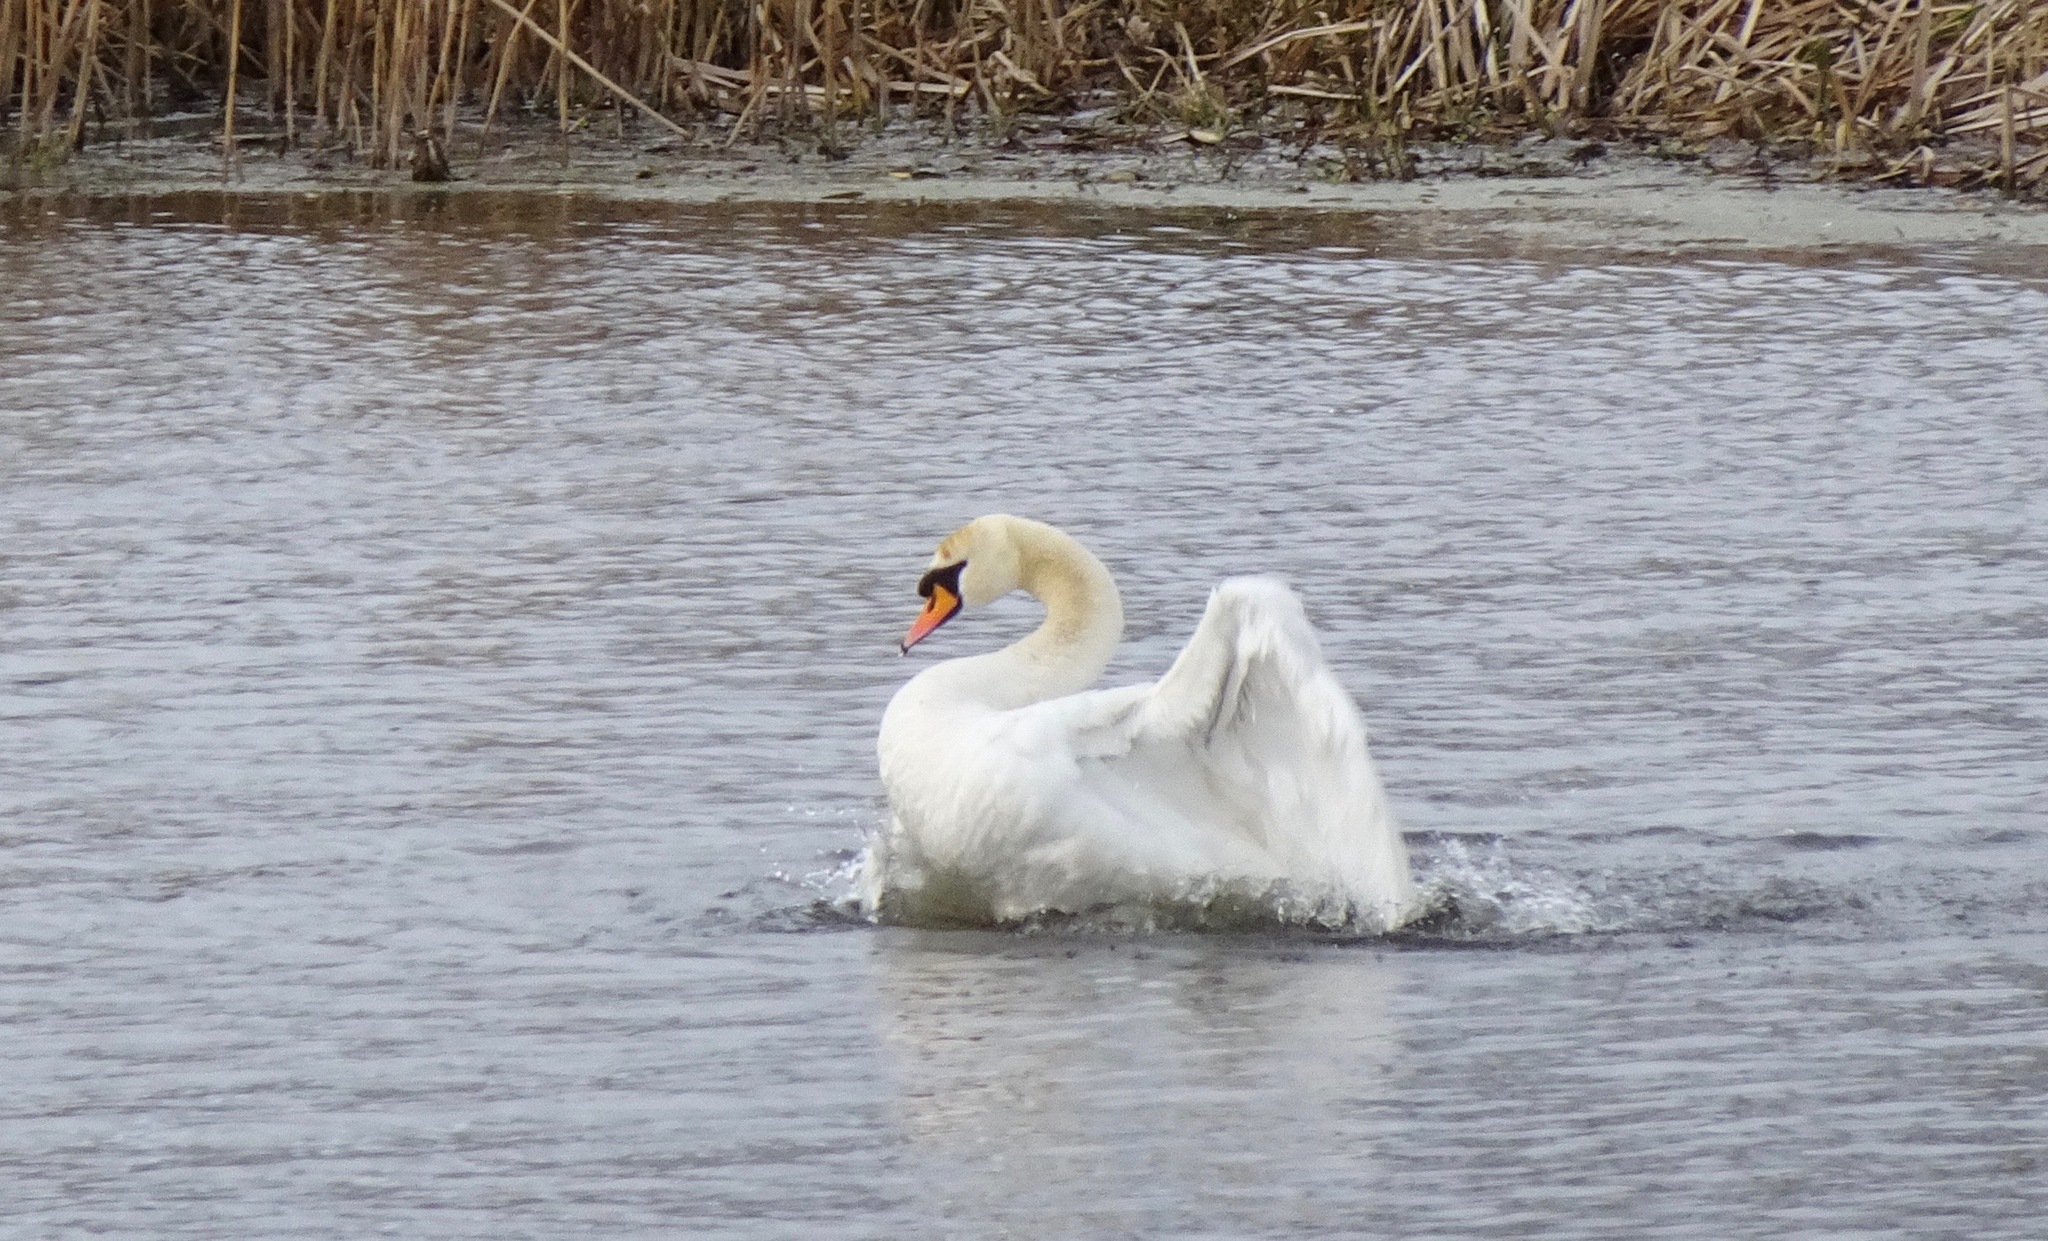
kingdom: Animalia
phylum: Chordata
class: Aves
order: Anseriformes
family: Anatidae
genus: Cygnus
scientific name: Cygnus olor
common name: Mute swan
